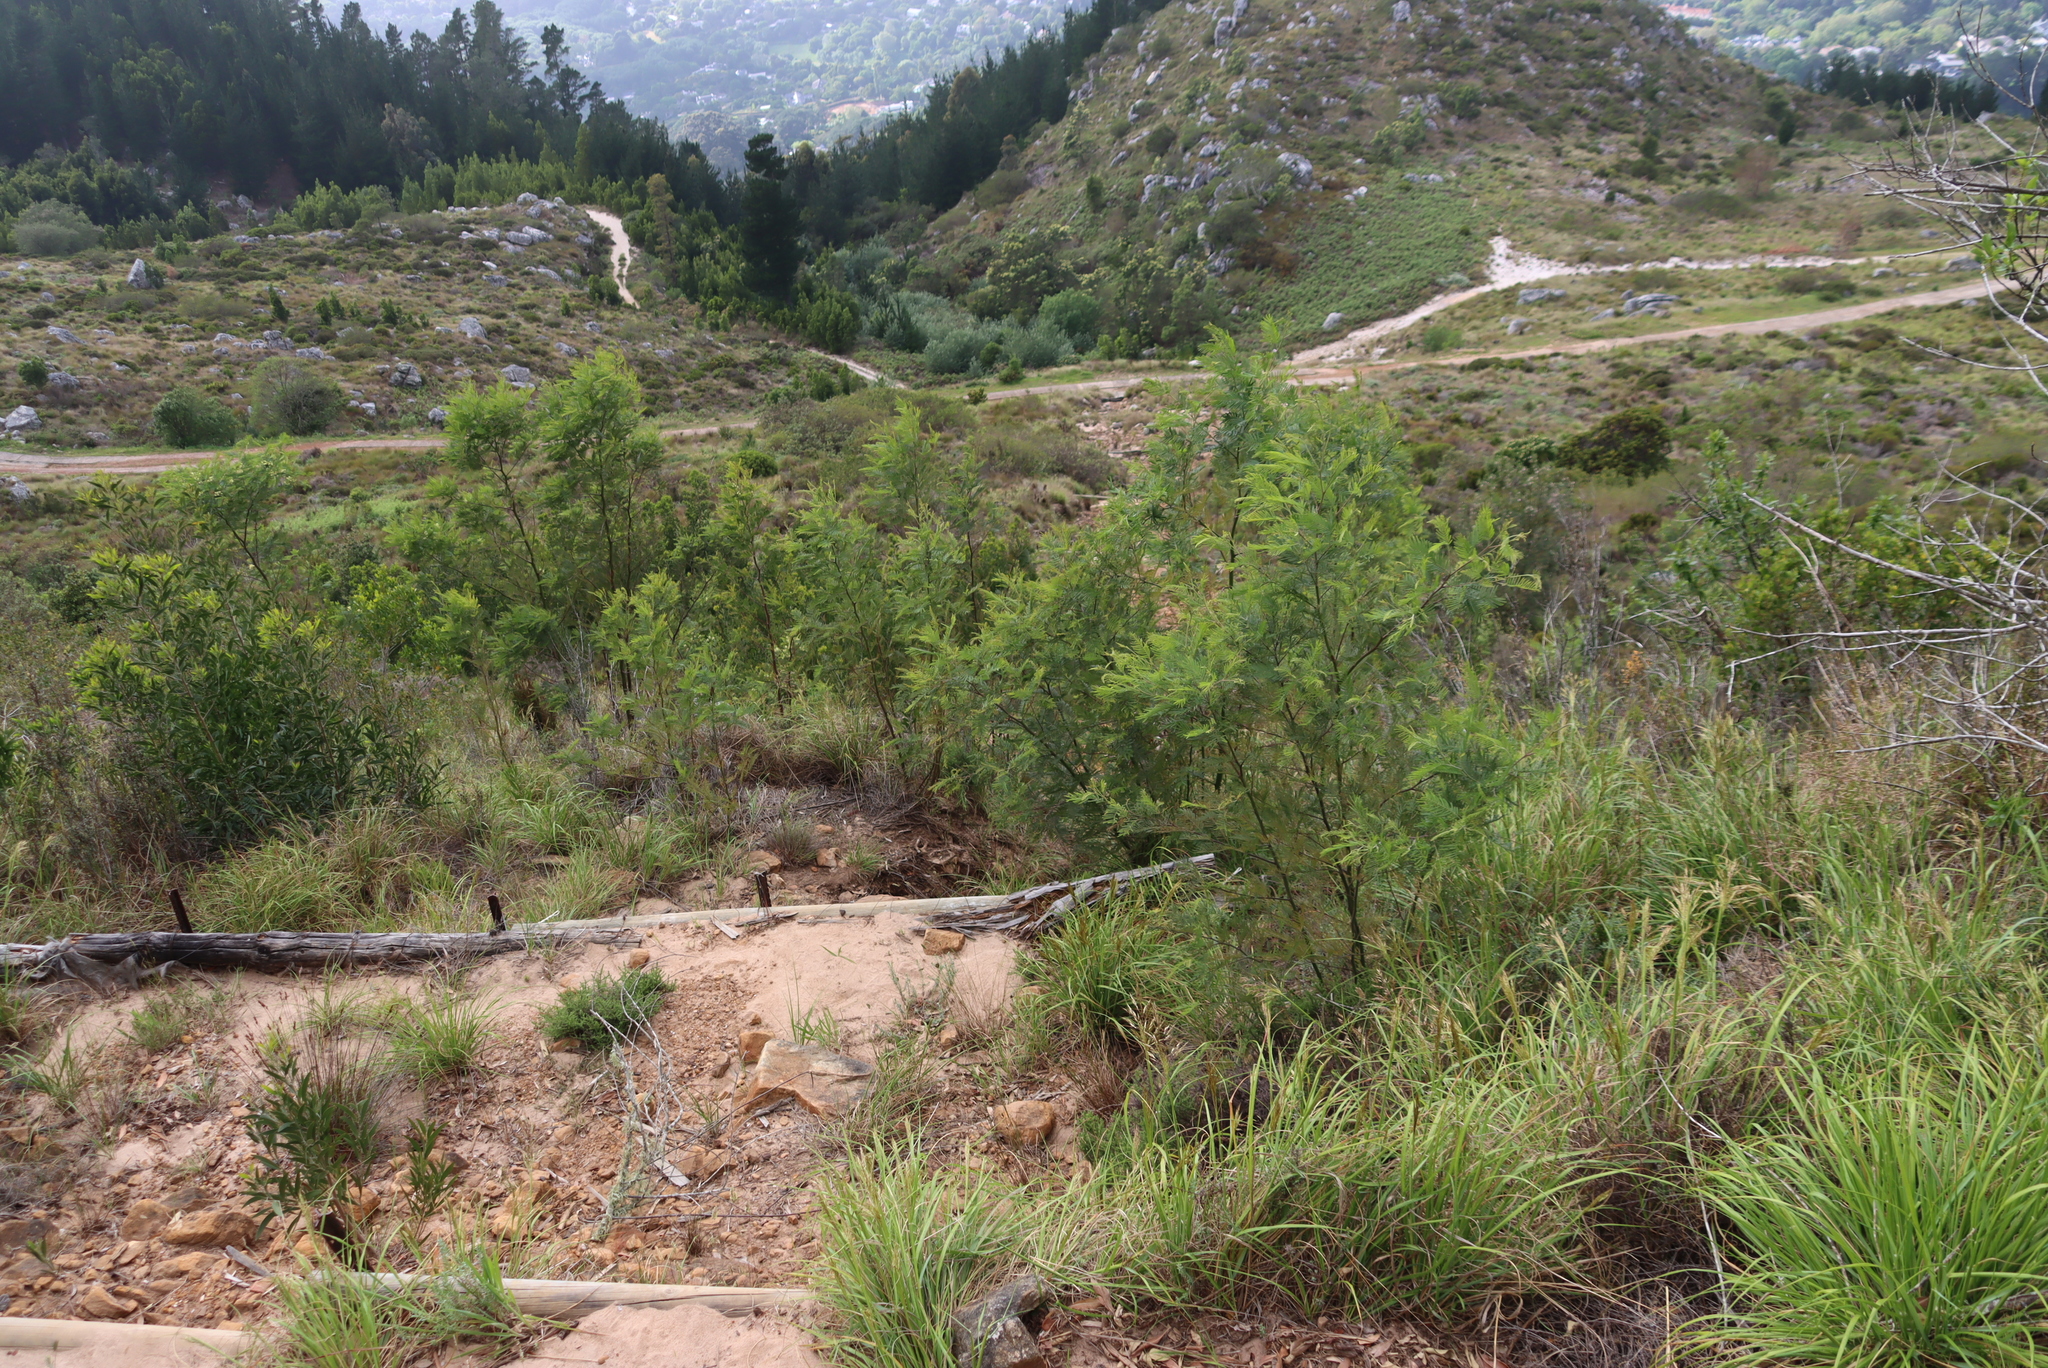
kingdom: Plantae
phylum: Tracheophyta
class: Magnoliopsida
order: Fabales
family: Fabaceae
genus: Acacia
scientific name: Acacia mearnsii
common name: Black wattle
